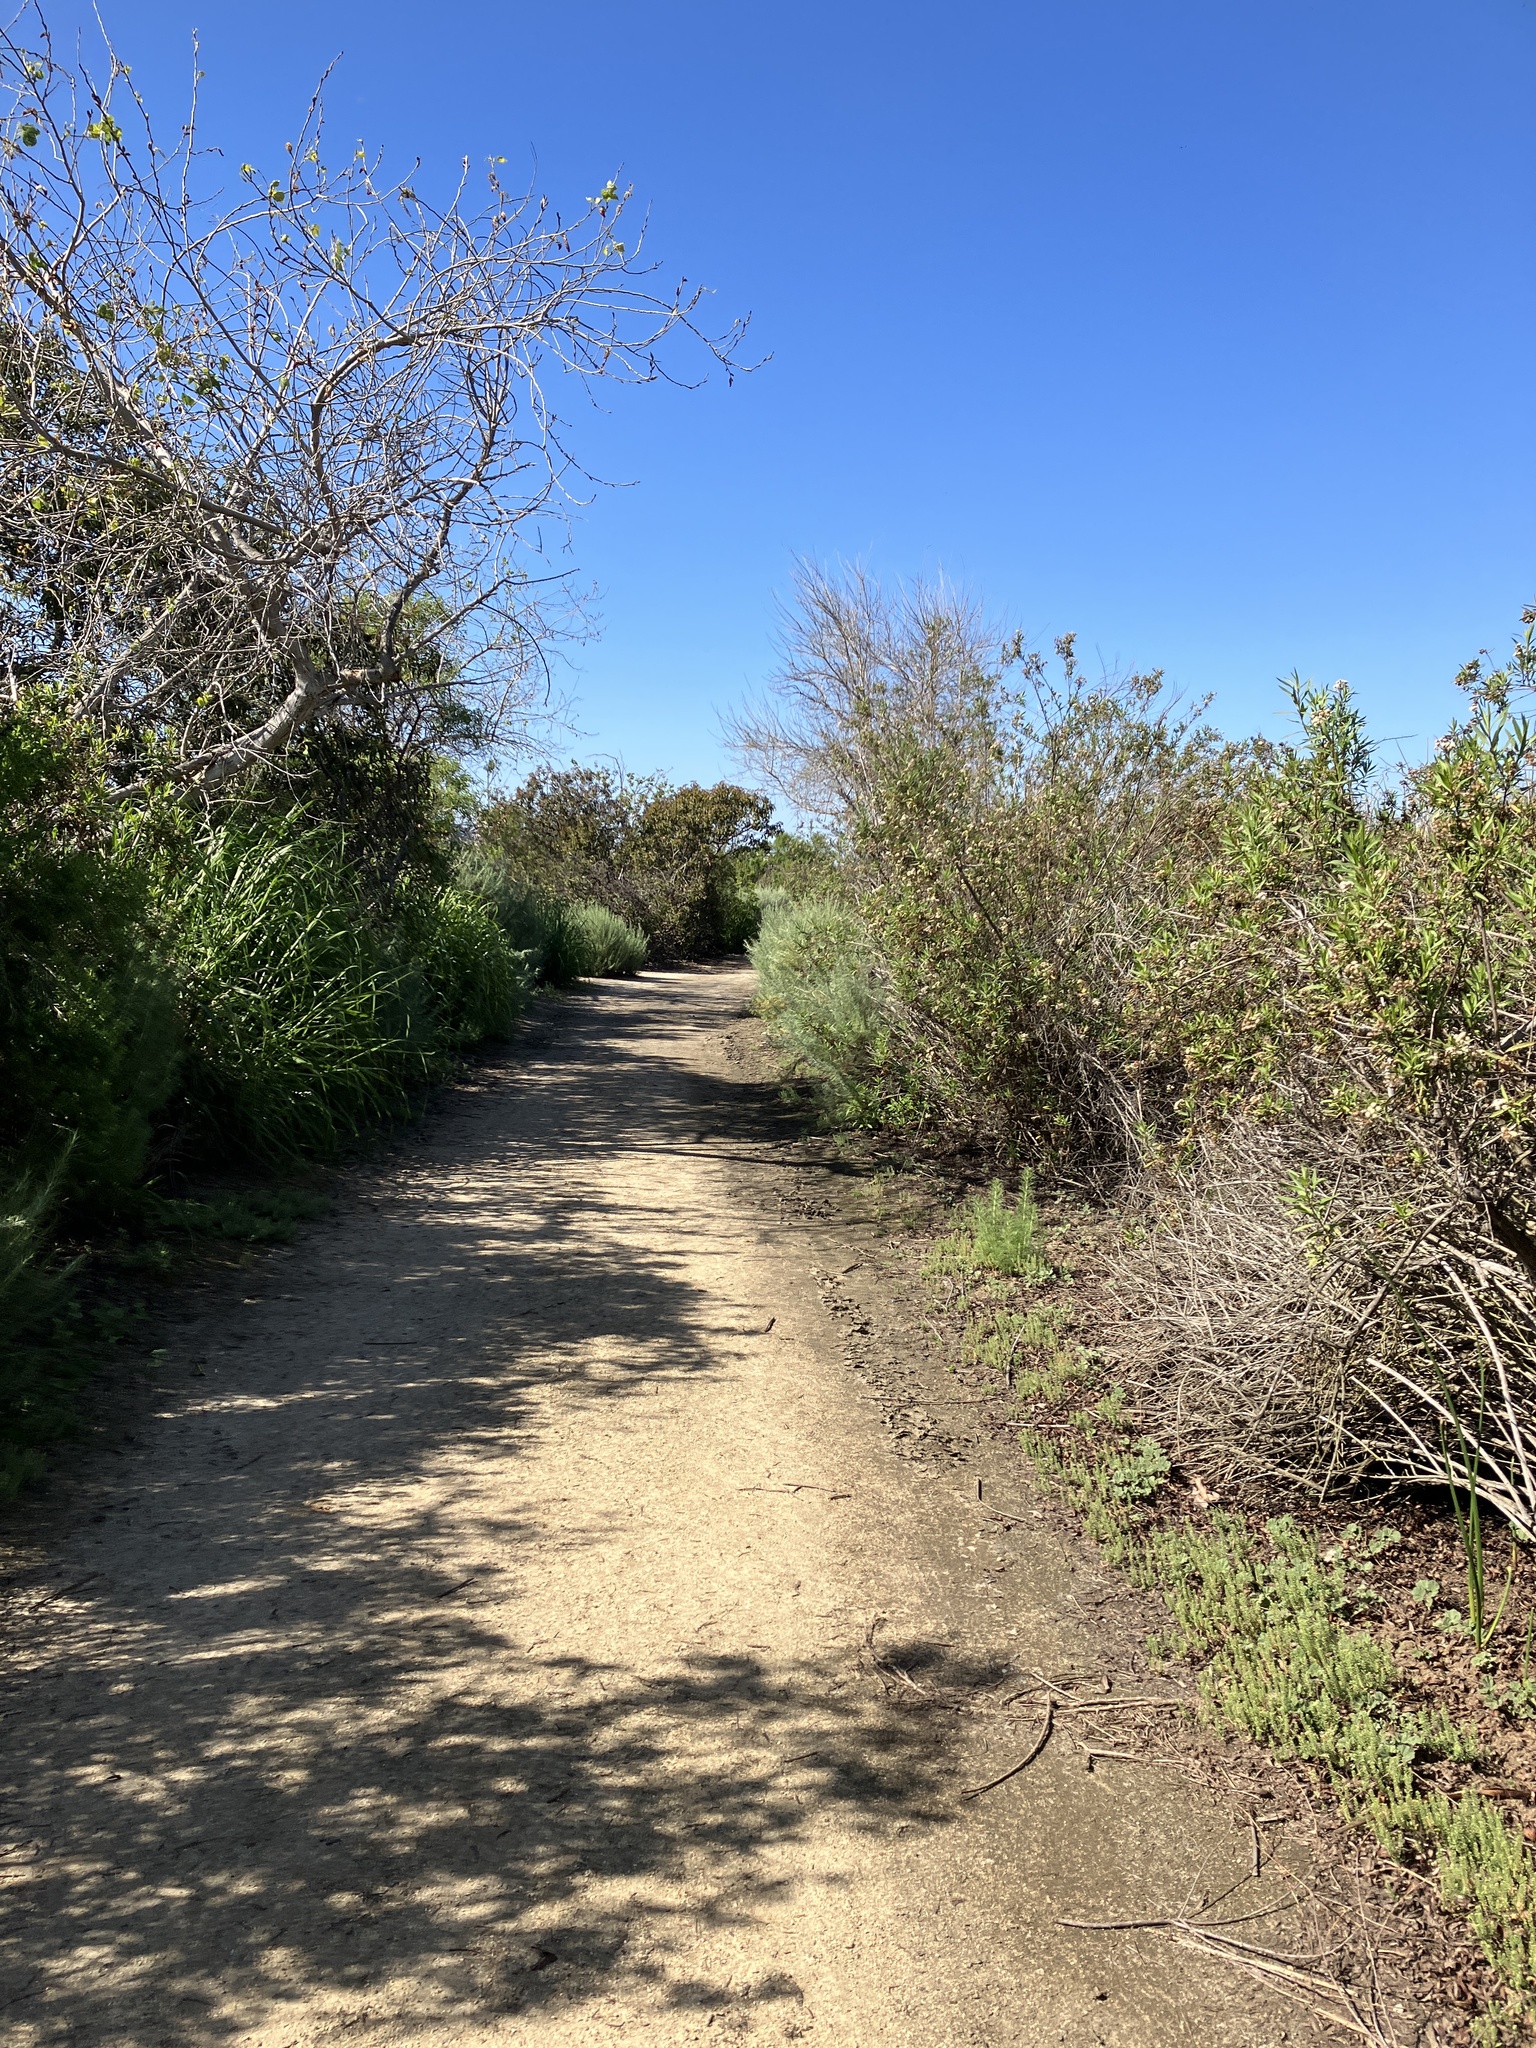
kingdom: Animalia
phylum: Chordata
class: Aves
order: Suliformes
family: Phalacrocoracidae
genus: Phalacrocorax
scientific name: Phalacrocorax auritus
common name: Double-crested cormorant
